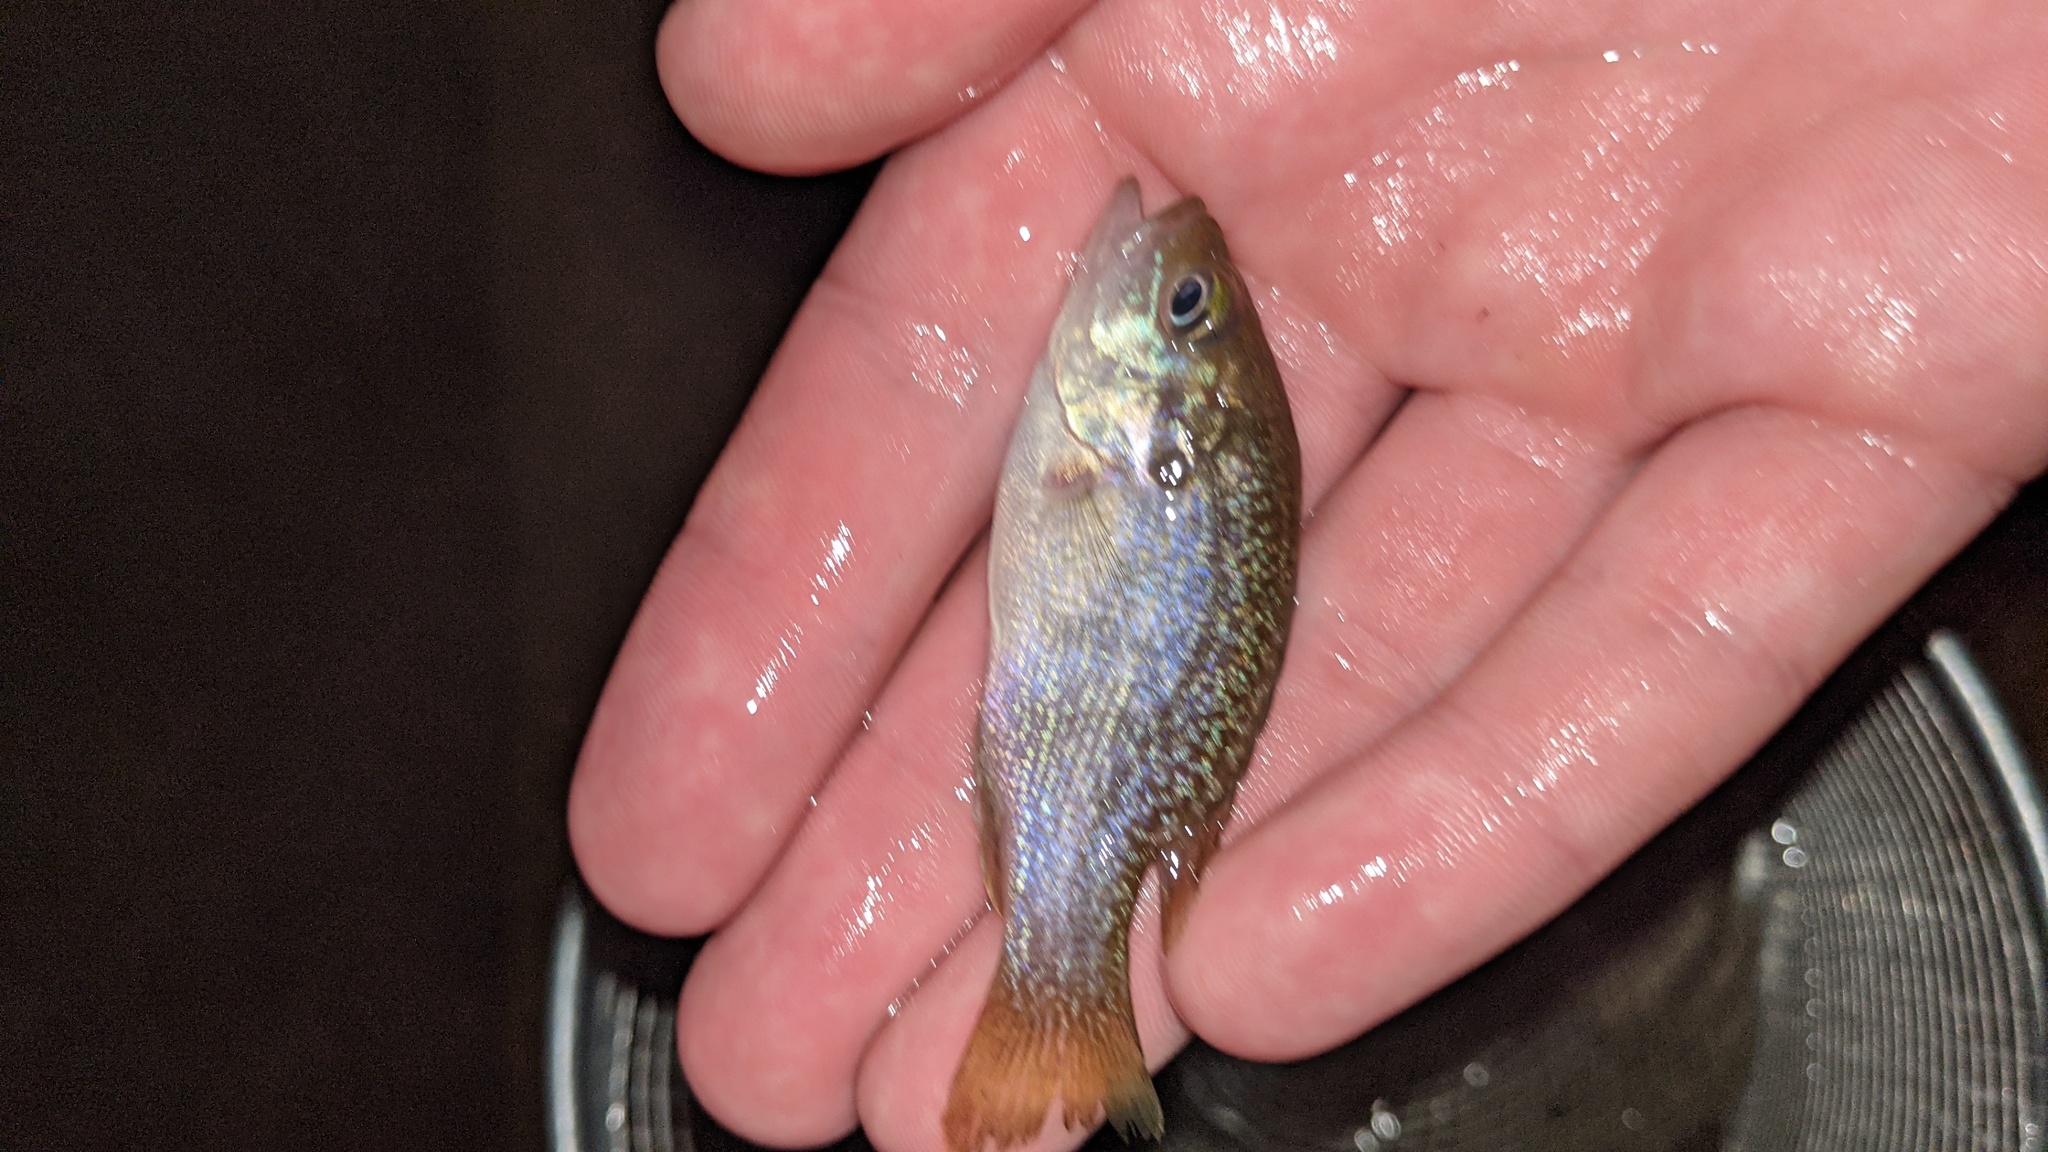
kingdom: Animalia
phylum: Chordata
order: Perciformes
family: Centrarchidae
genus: Lepomis
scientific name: Lepomis cyanellus
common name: Green sunfish
